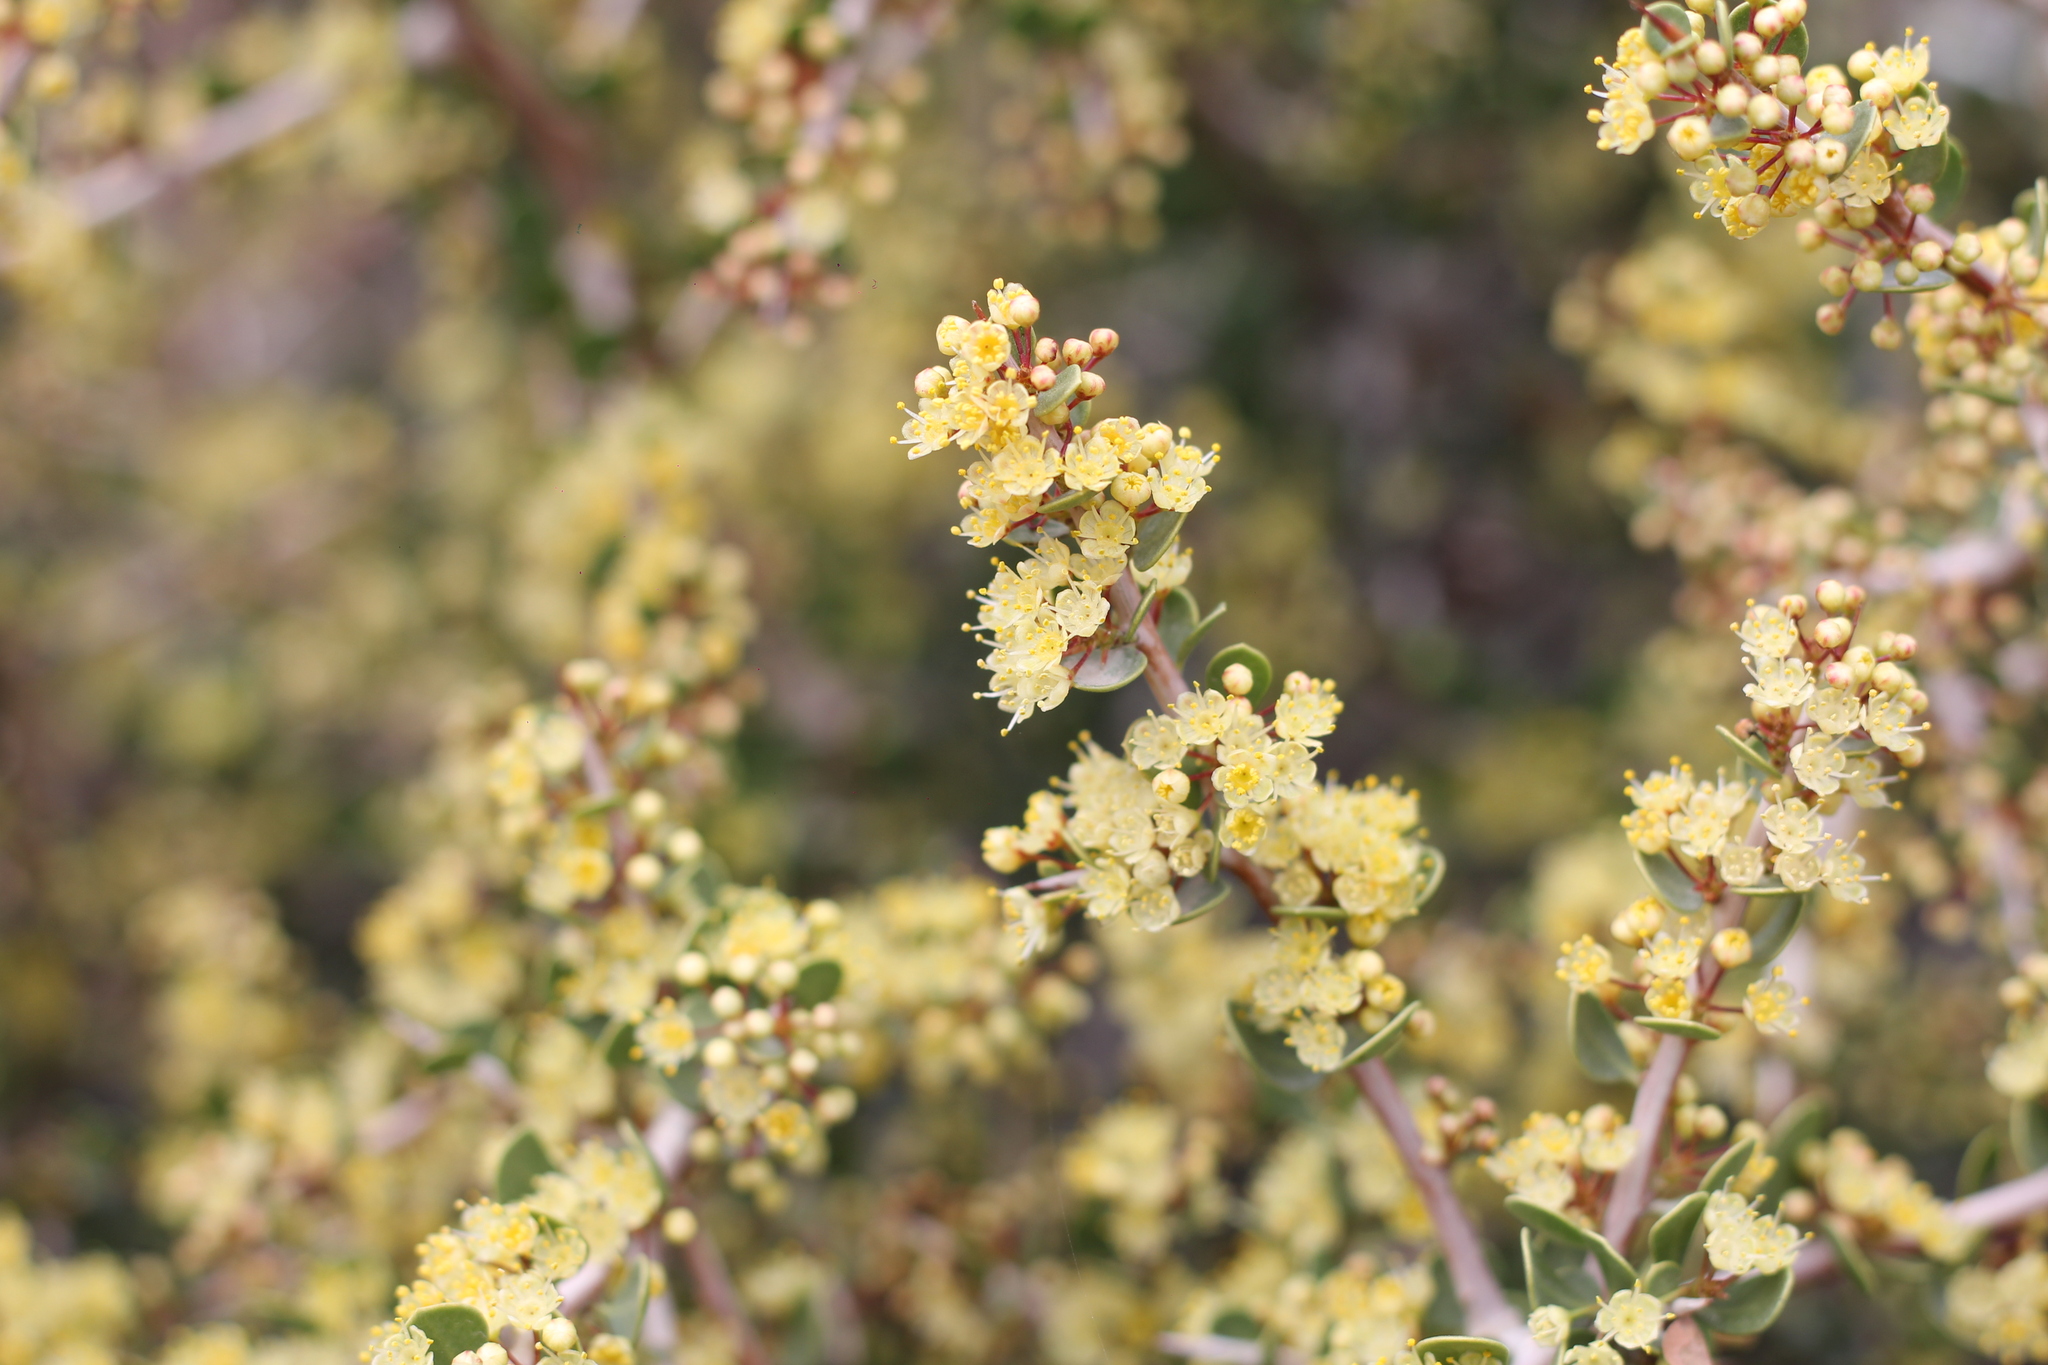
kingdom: Plantae
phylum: Tracheophyta
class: Magnoliopsida
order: Sapindales
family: Anacardiaceae
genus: Schinus
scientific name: Schinus johnstonii
